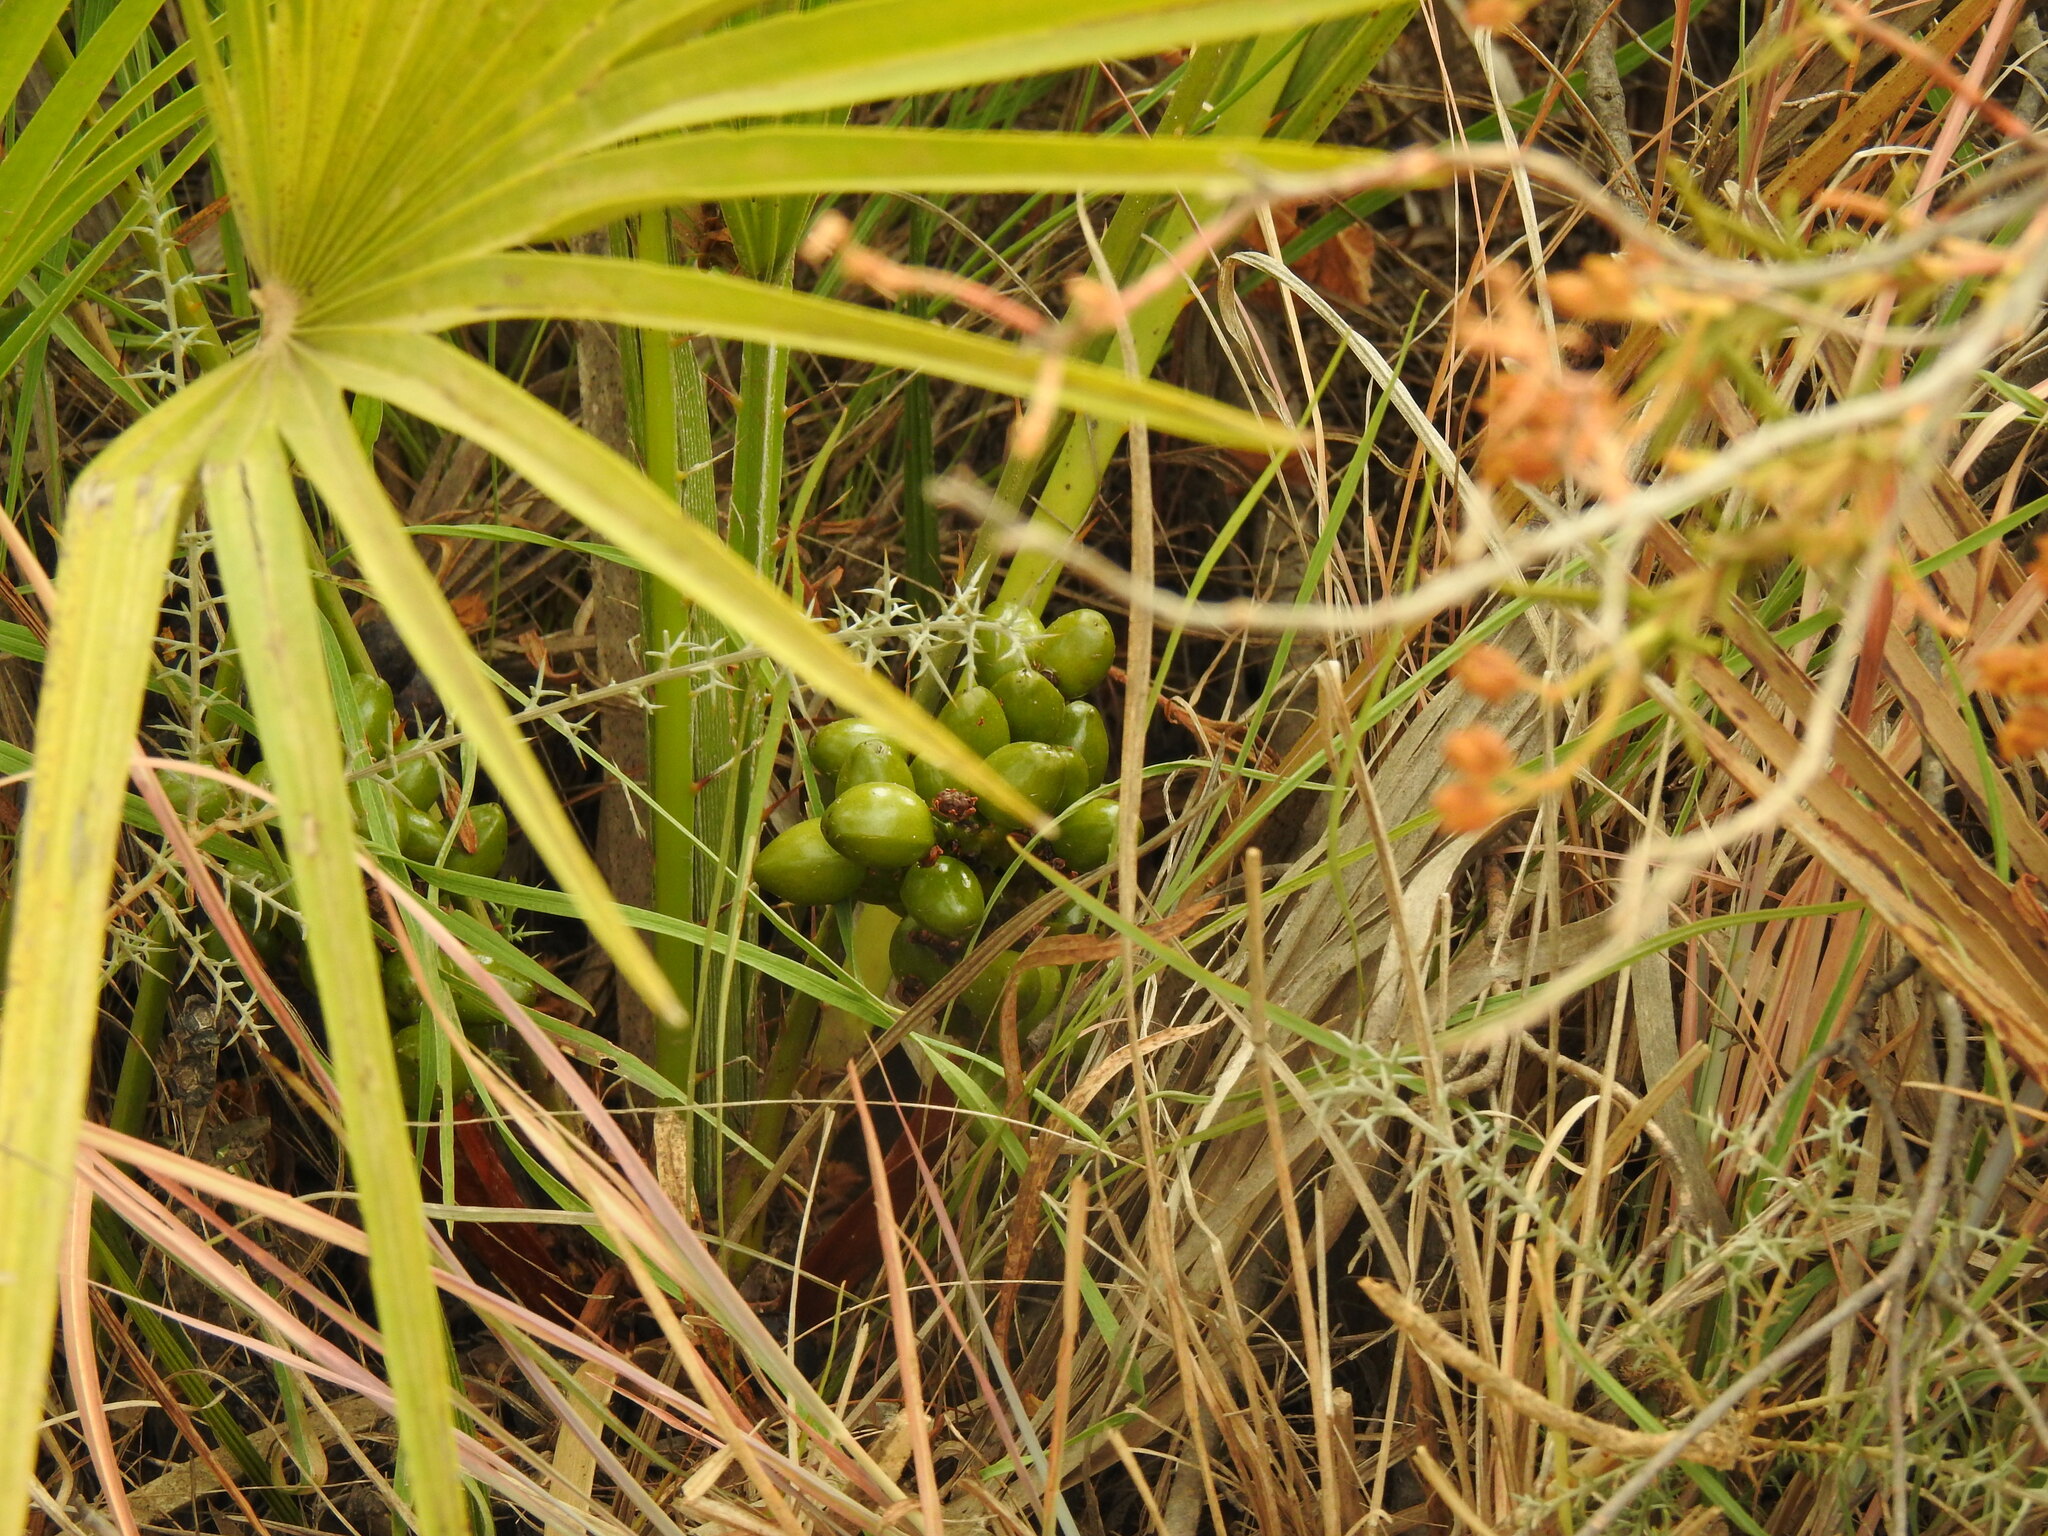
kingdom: Plantae
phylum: Tracheophyta
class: Liliopsida
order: Arecales
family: Arecaceae
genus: Chamaerops
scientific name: Chamaerops humilis
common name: Dwarf fan palm
